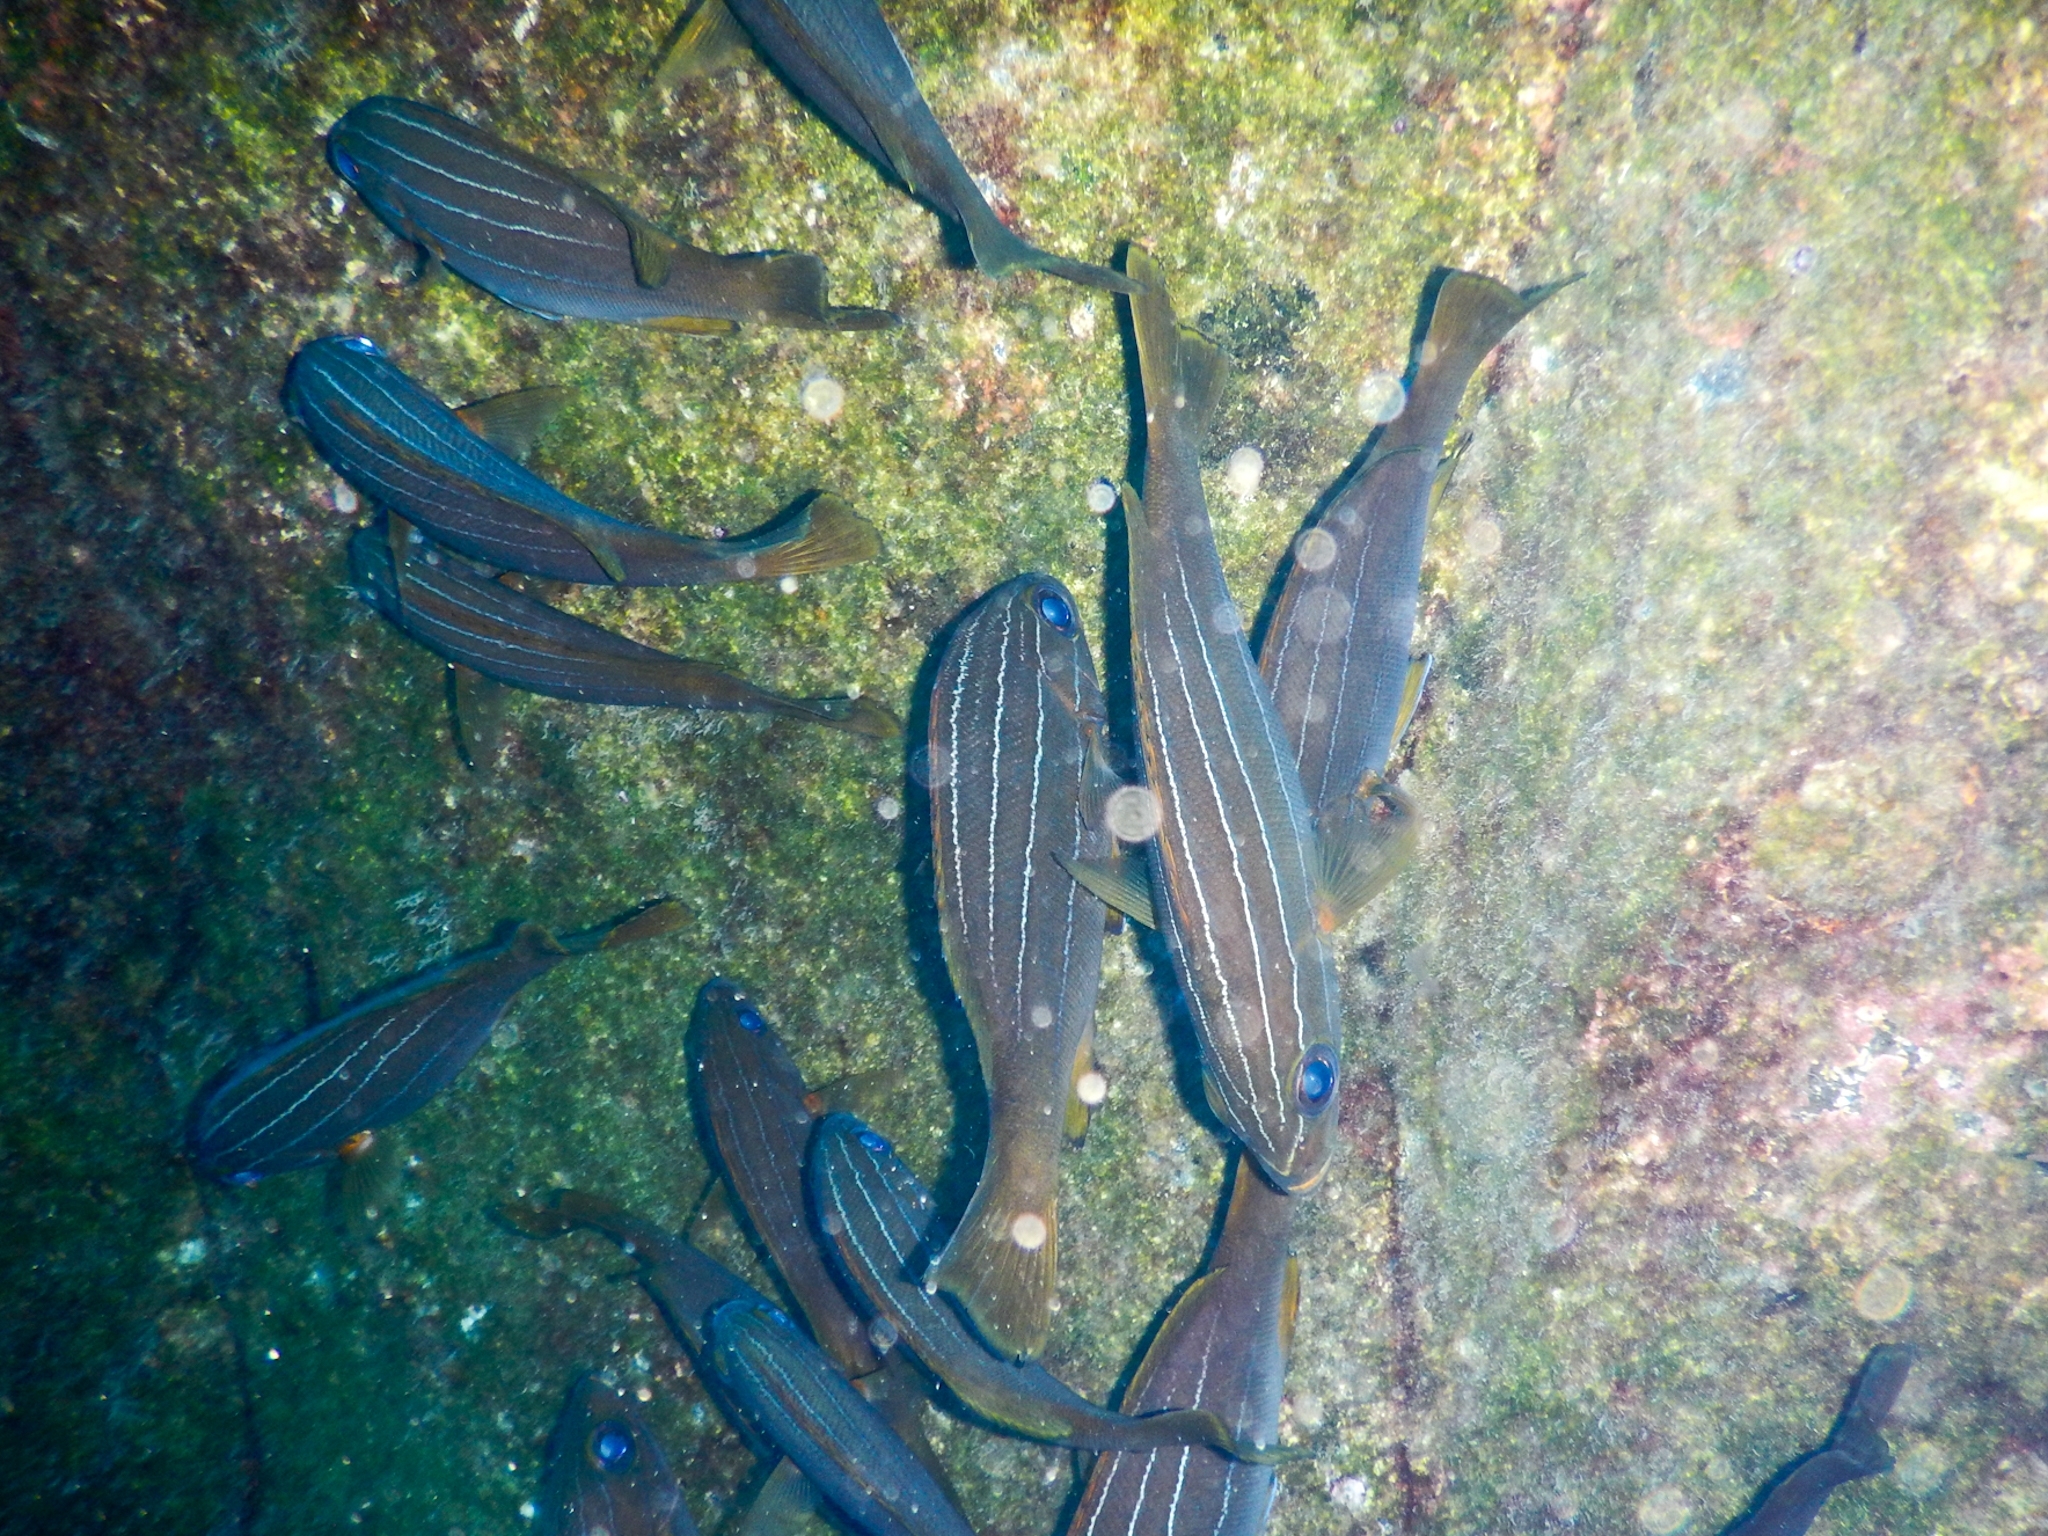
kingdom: Animalia
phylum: Chordata
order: Perciformes
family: Haemulidae
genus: Parapristipoma
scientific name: Parapristipoma octolineatum
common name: African striped grunt
